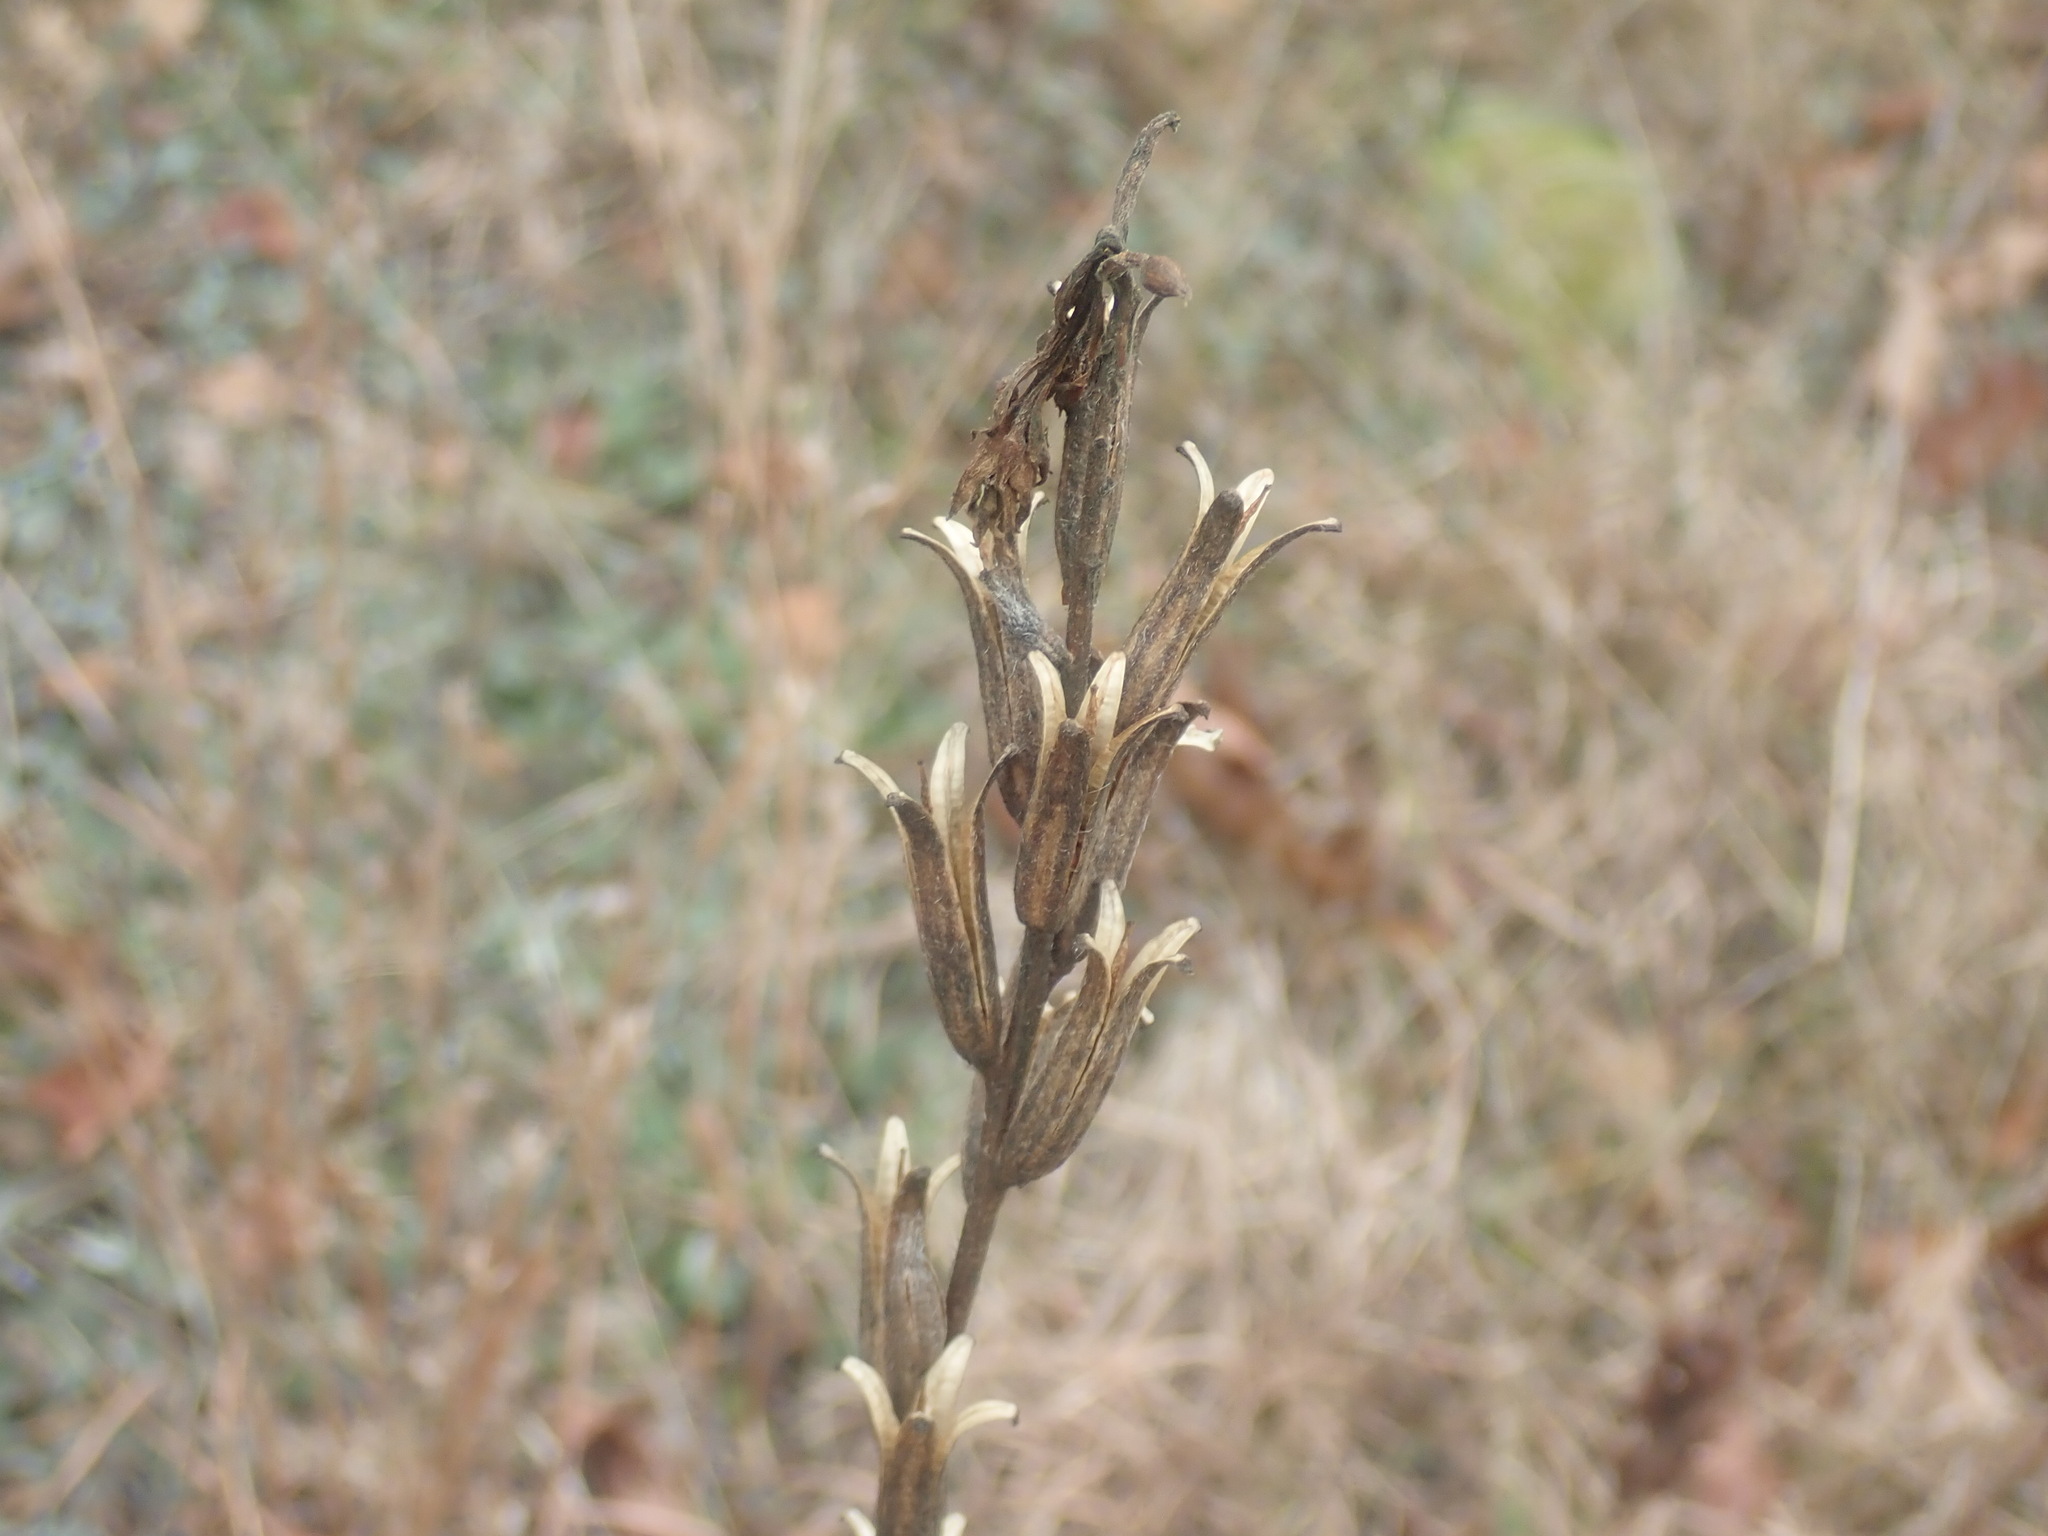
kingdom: Plantae
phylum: Tracheophyta
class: Magnoliopsida
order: Myrtales
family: Onagraceae
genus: Oenothera
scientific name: Oenothera biennis
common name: Common evening-primrose
